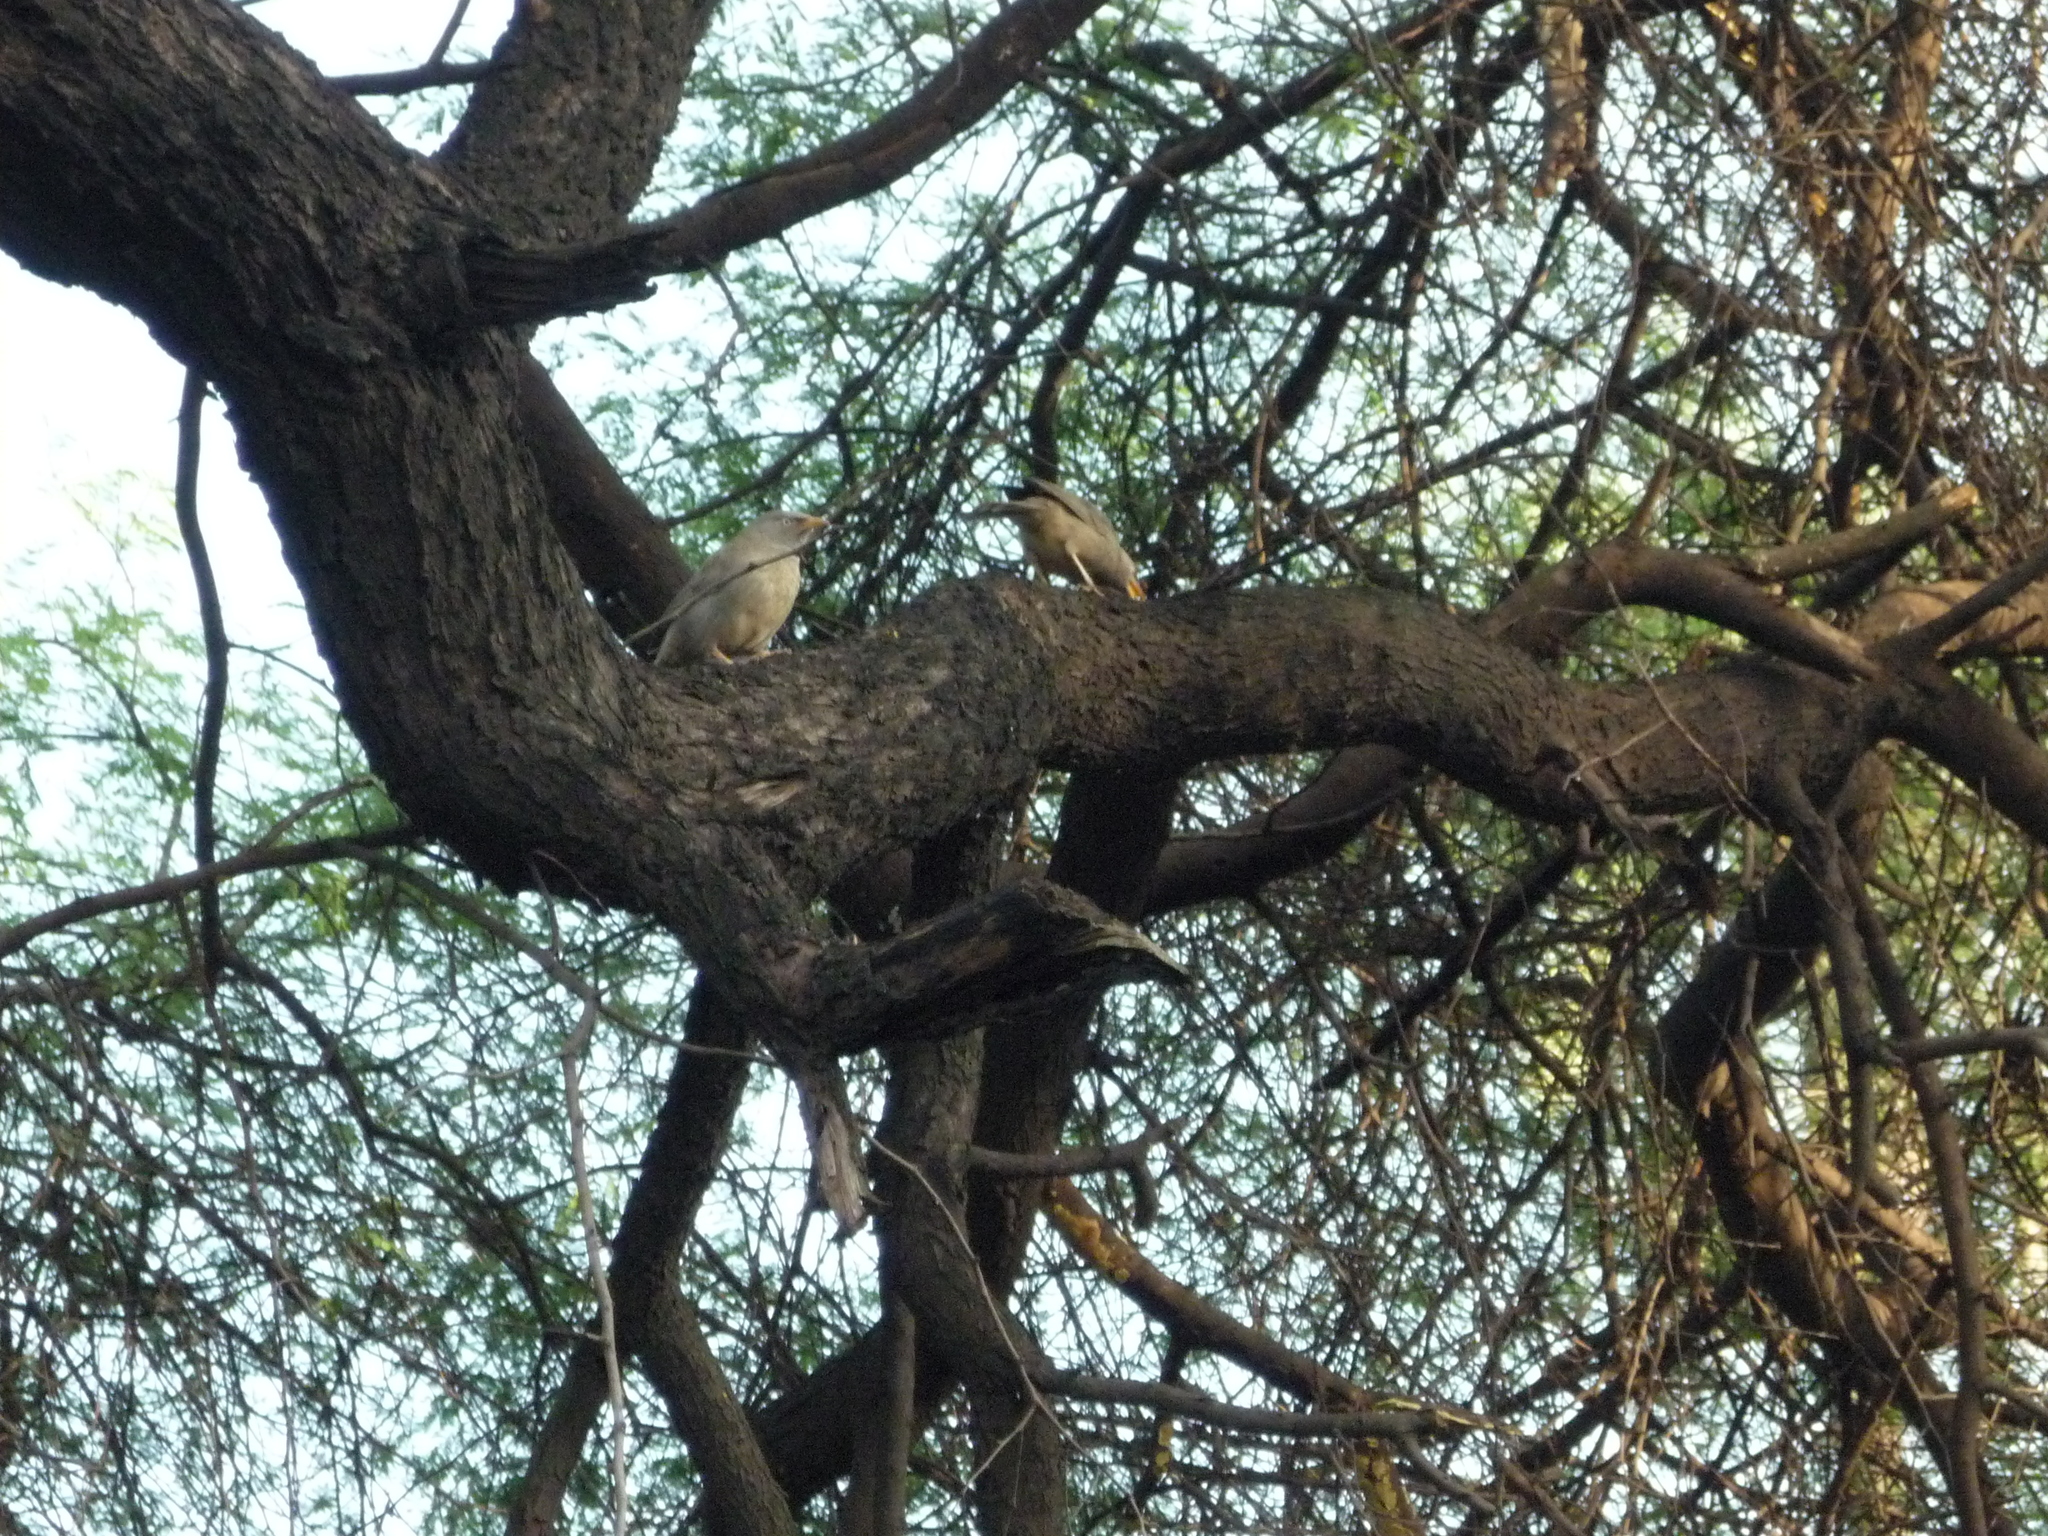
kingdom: Animalia
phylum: Chordata
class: Aves
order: Passeriformes
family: Leiothrichidae
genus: Turdoides
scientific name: Turdoides striata
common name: Jungle babbler
